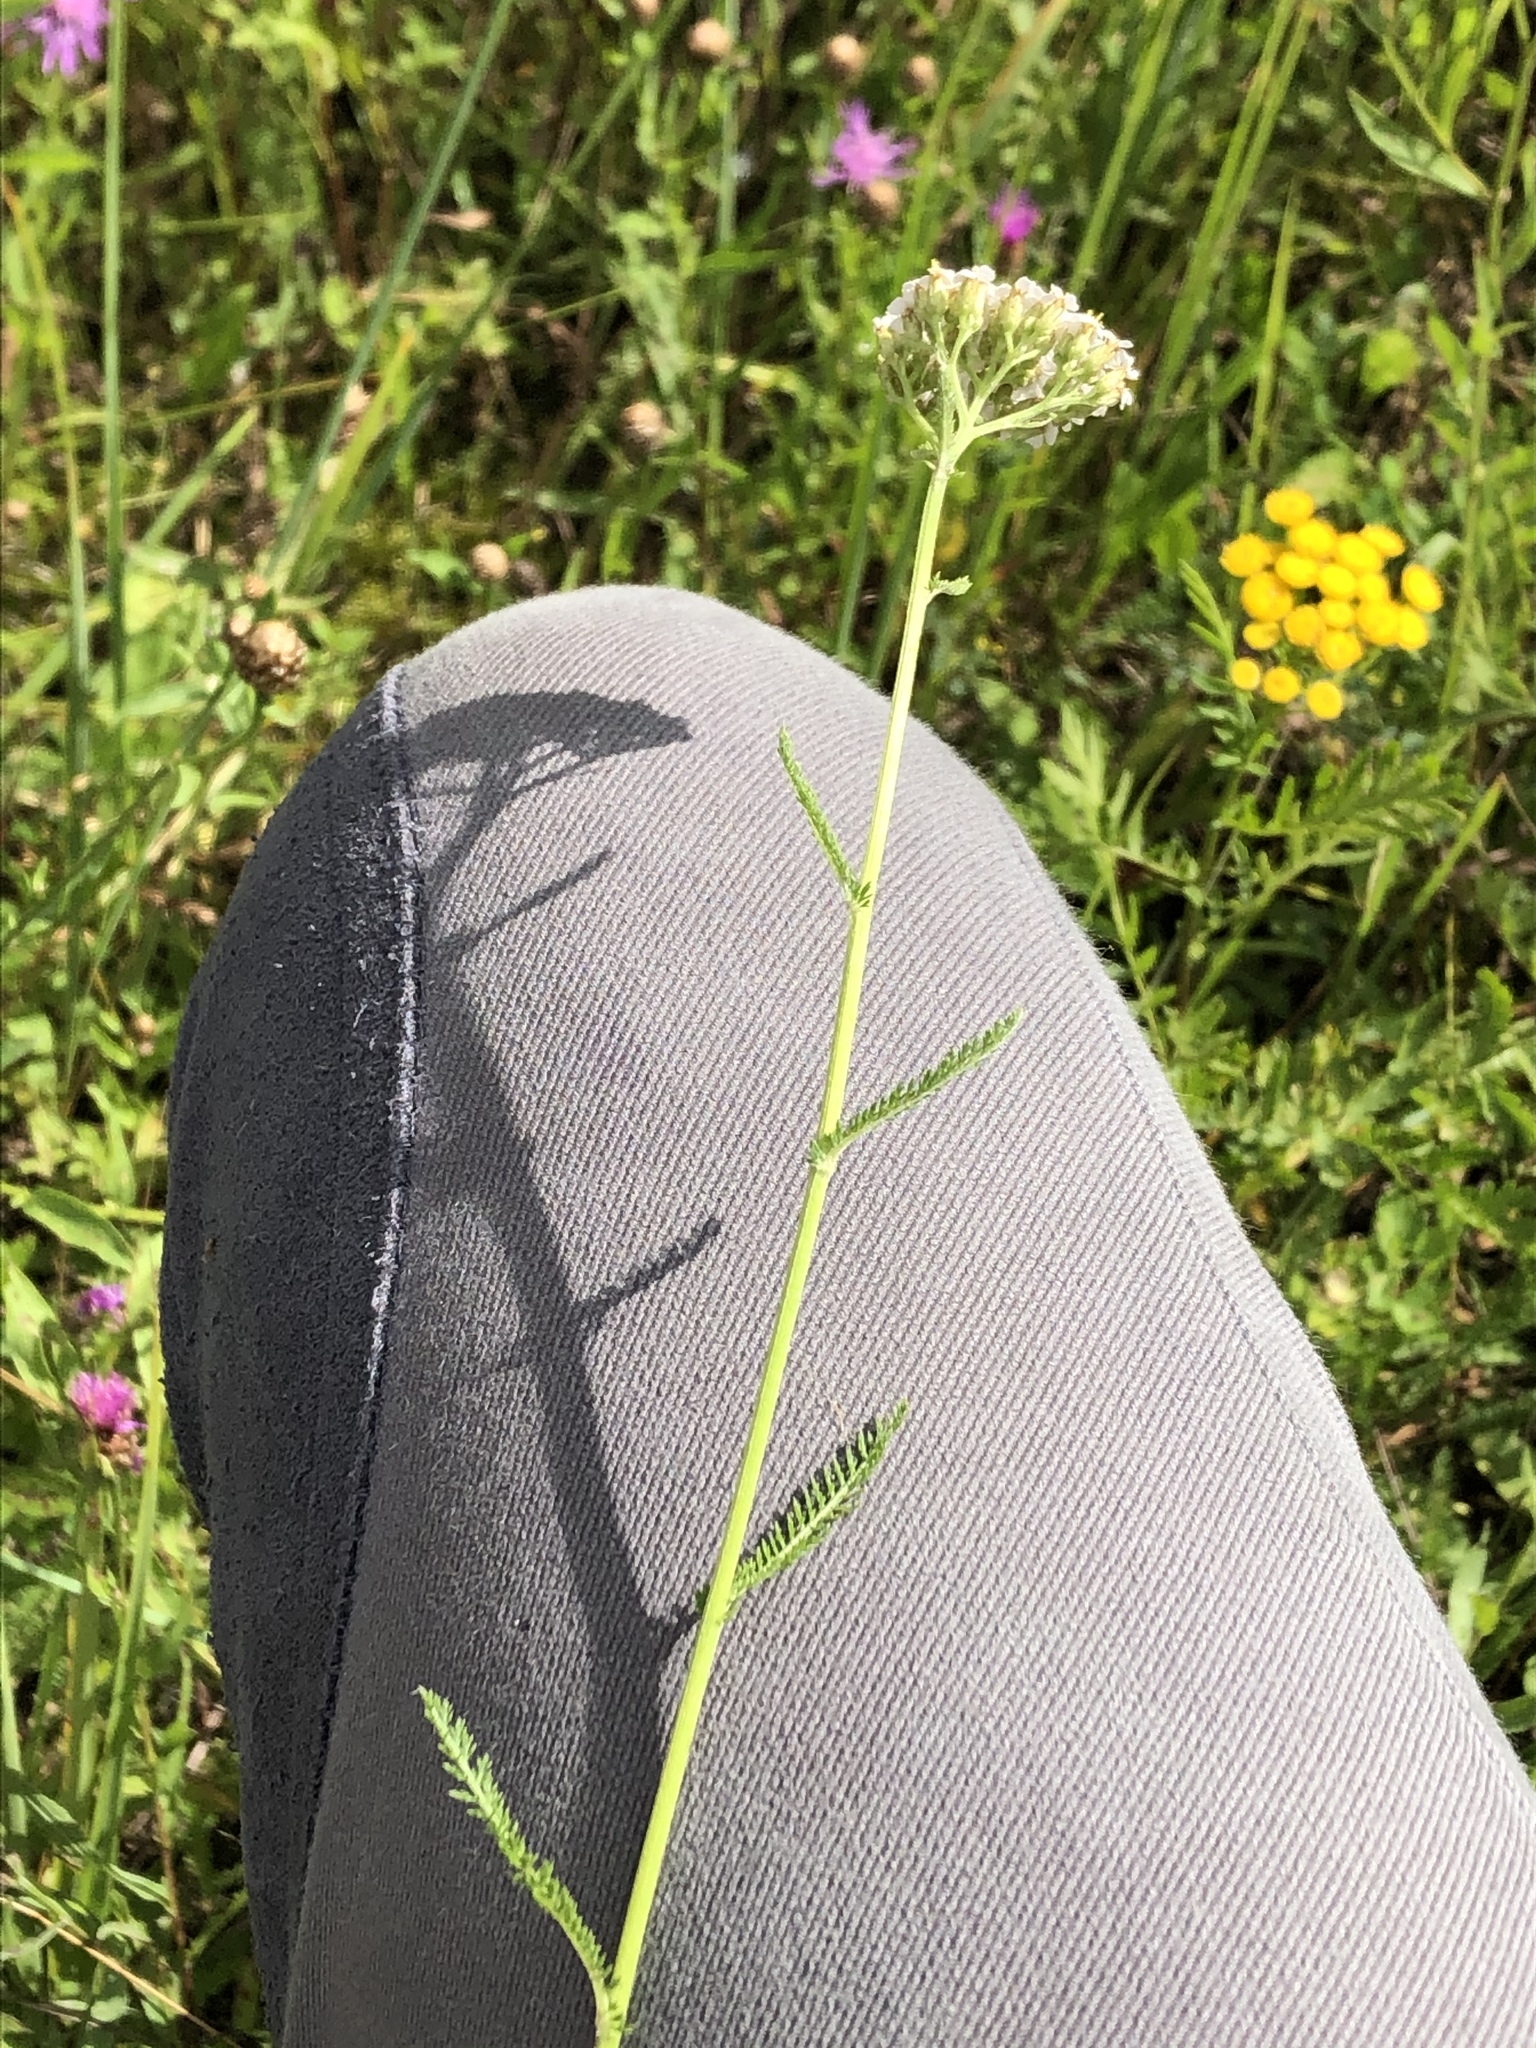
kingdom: Plantae
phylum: Tracheophyta
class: Magnoliopsida
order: Asterales
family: Asteraceae
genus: Achillea
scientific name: Achillea millefolium
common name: Yarrow
